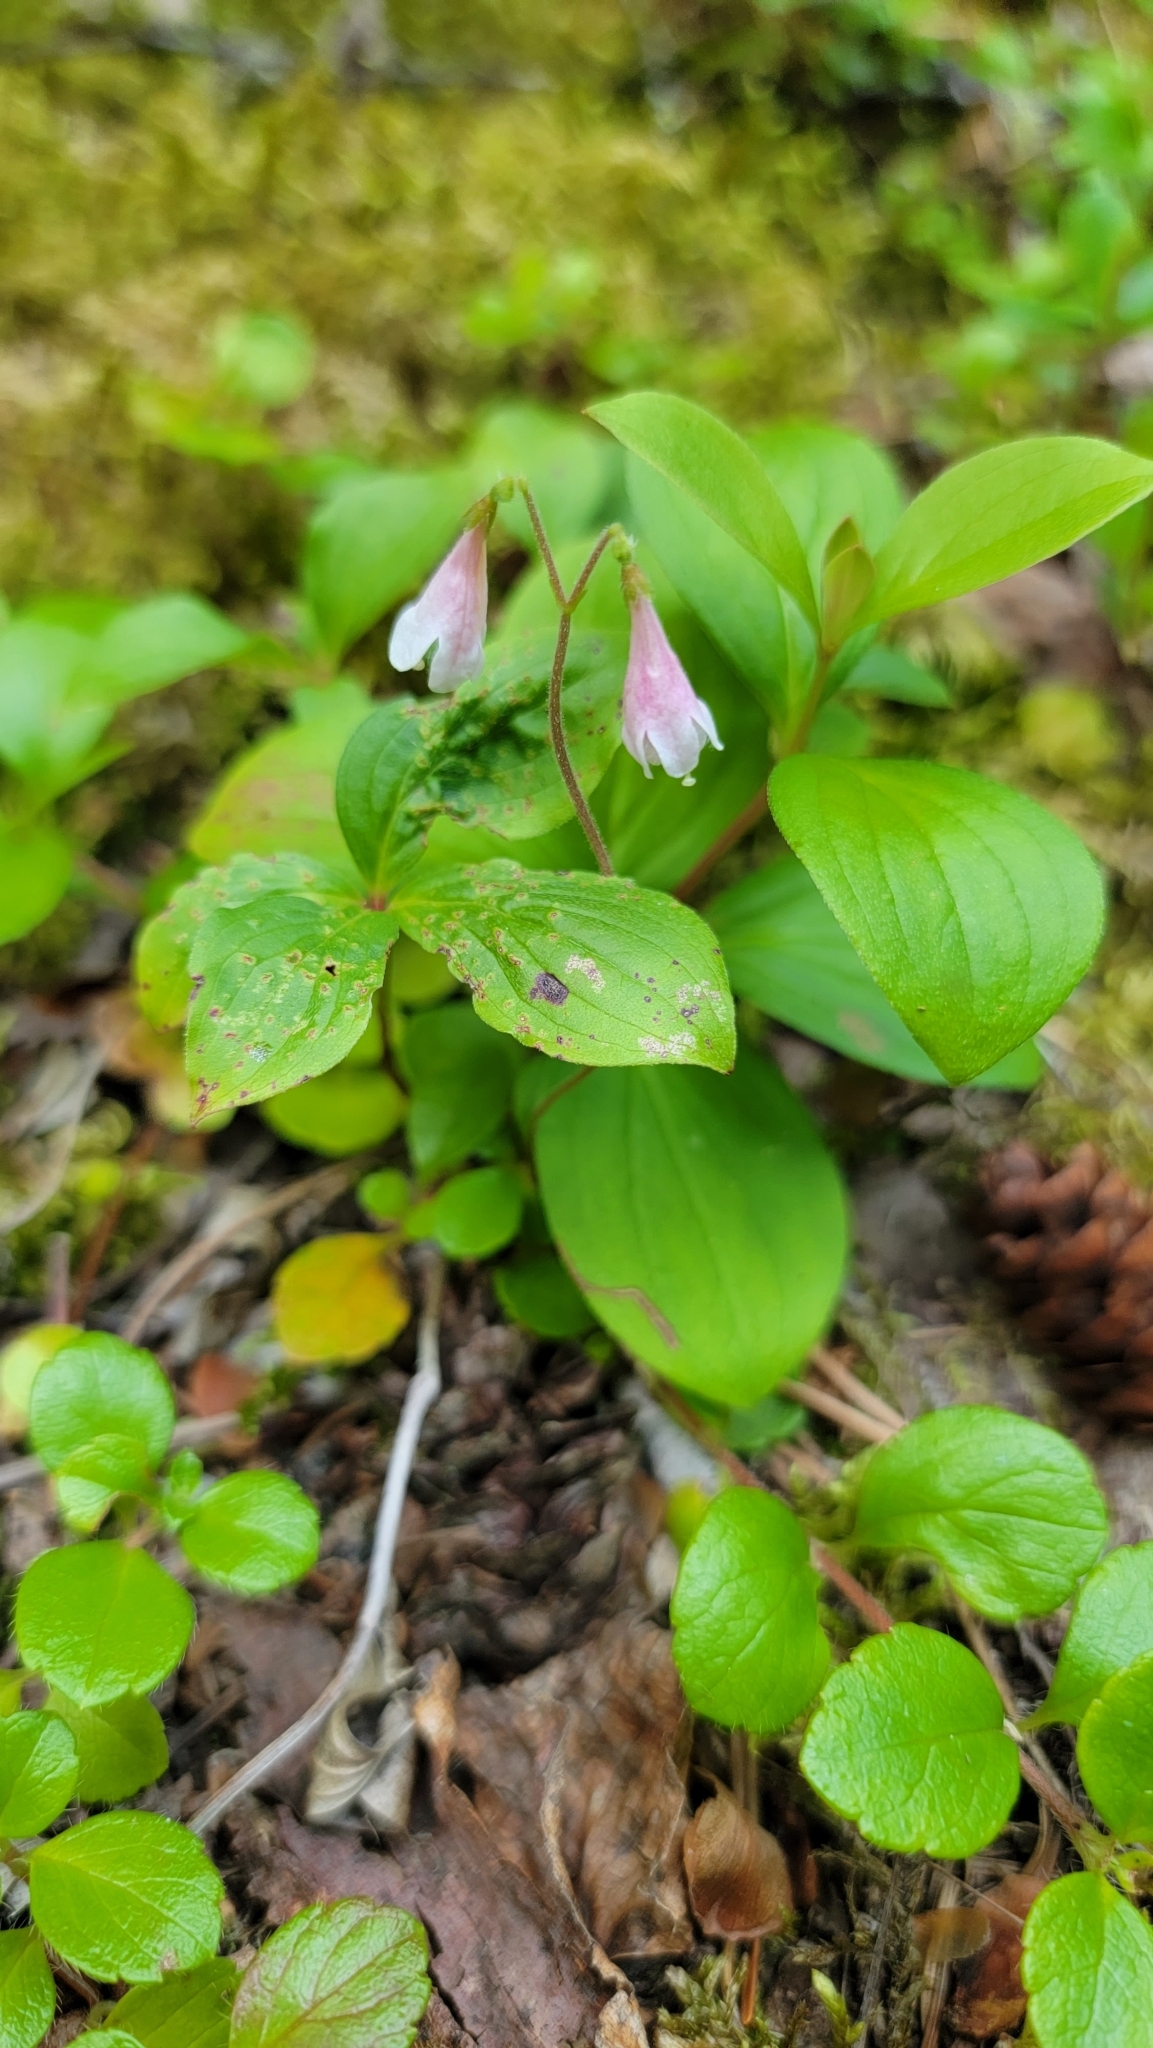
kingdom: Plantae
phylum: Tracheophyta
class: Magnoliopsida
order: Dipsacales
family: Caprifoliaceae
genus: Linnaea
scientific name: Linnaea borealis
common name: Twinflower
